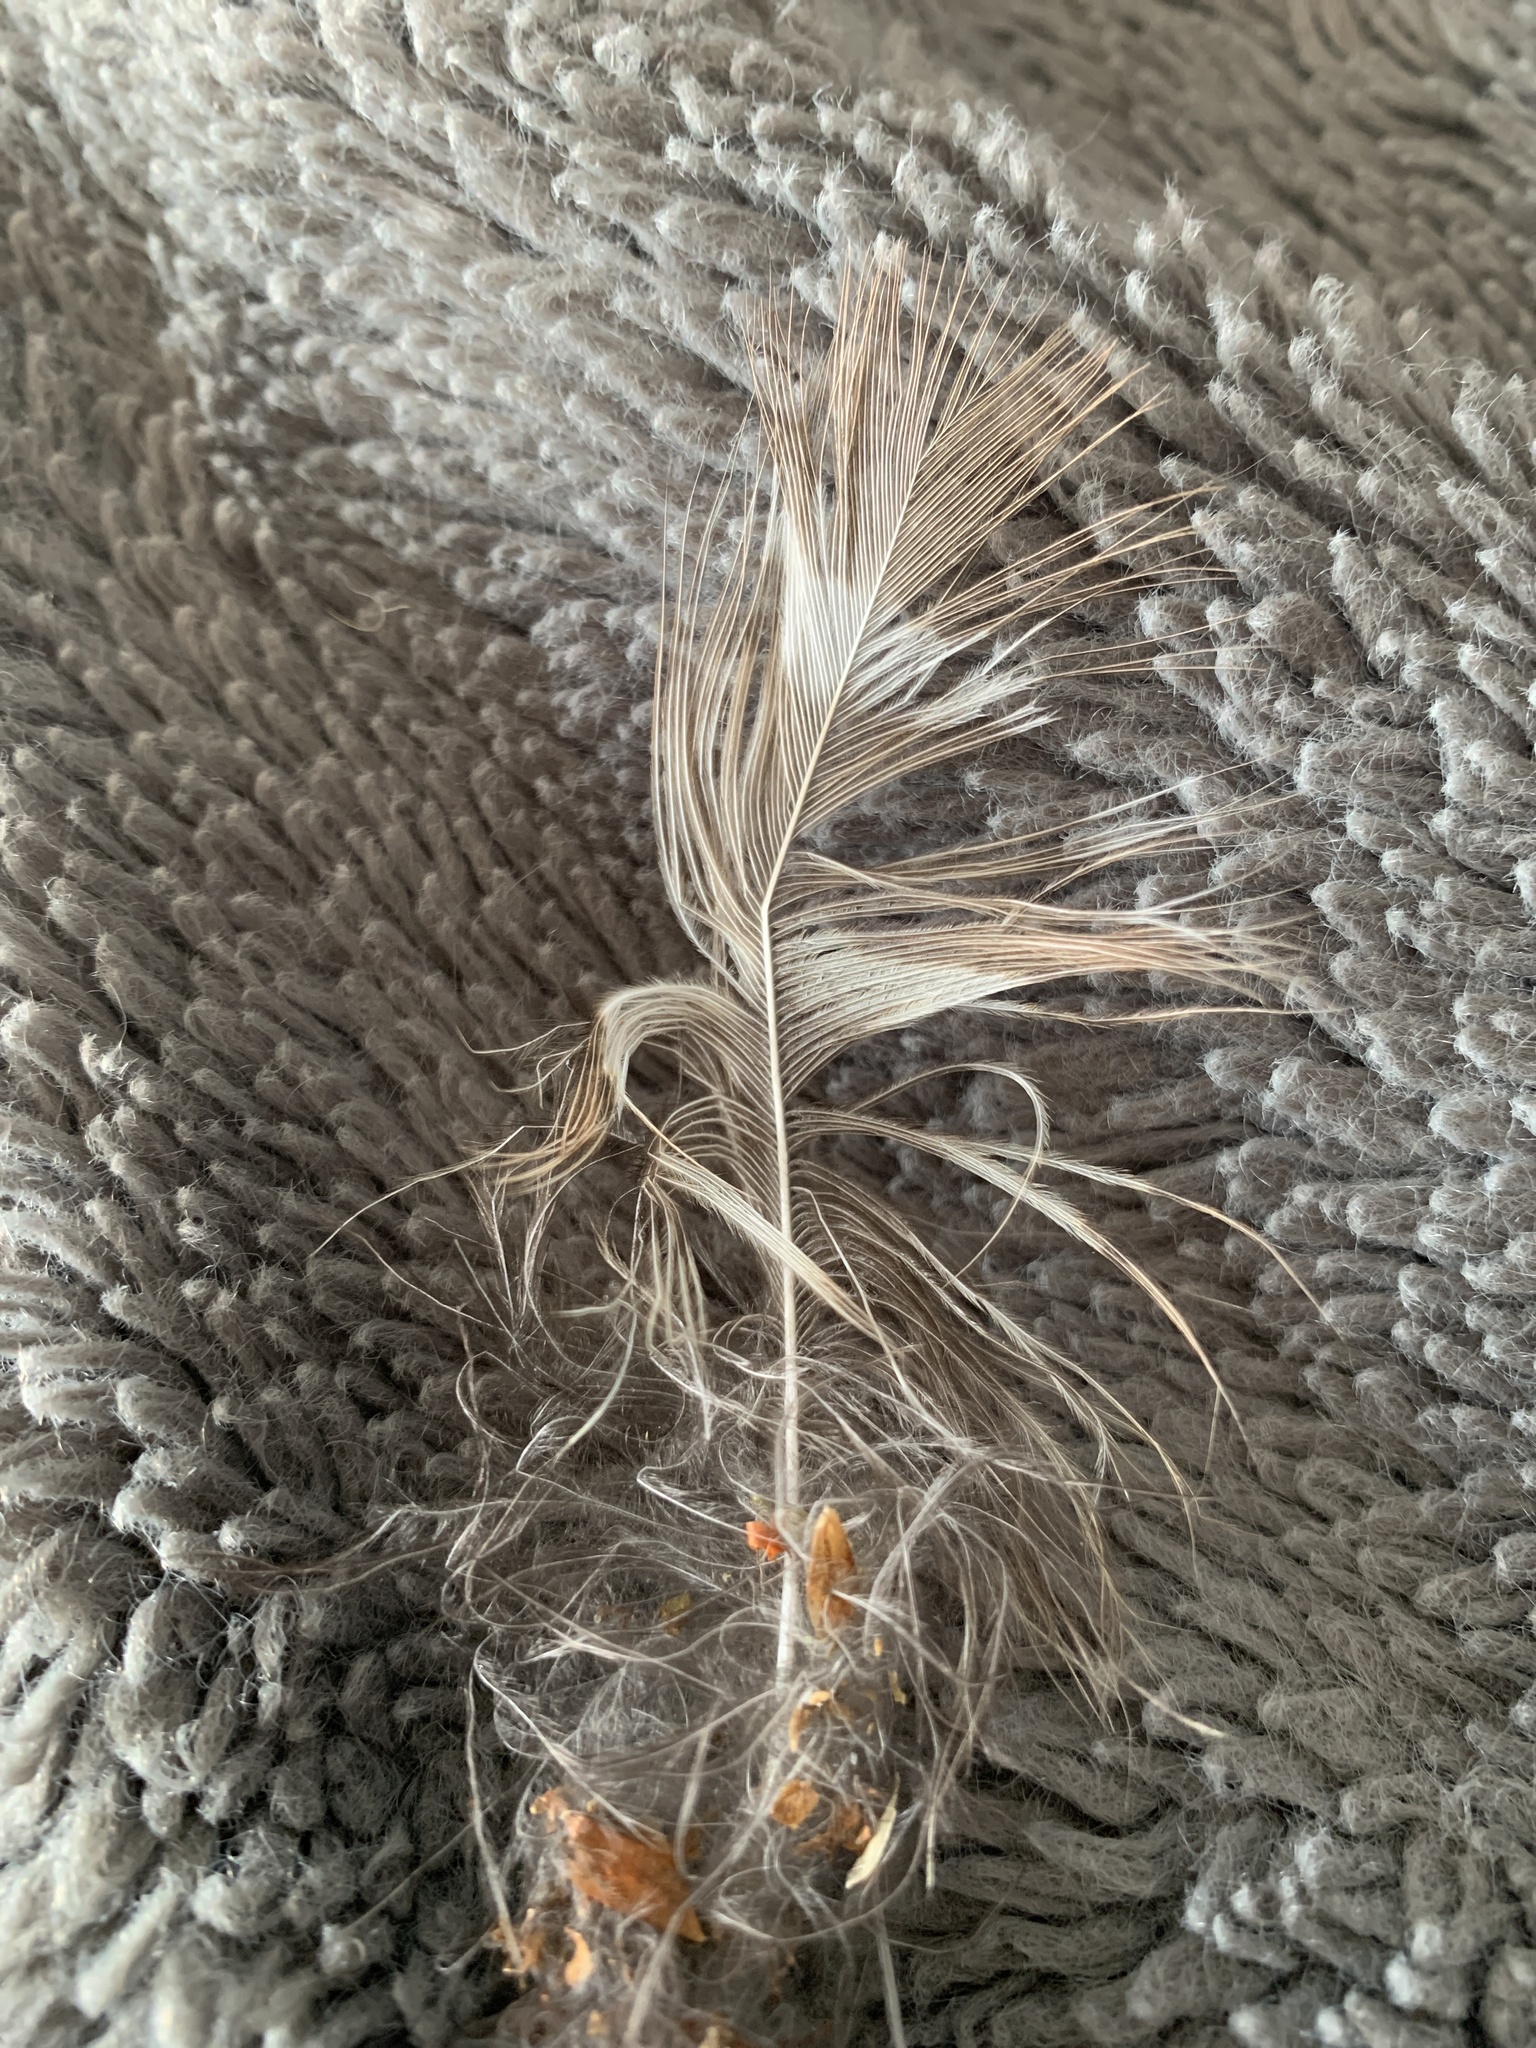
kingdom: Animalia
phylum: Chordata
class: Aves
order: Strigiformes
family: Strigidae
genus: Strix
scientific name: Strix varia
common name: Barred owl
